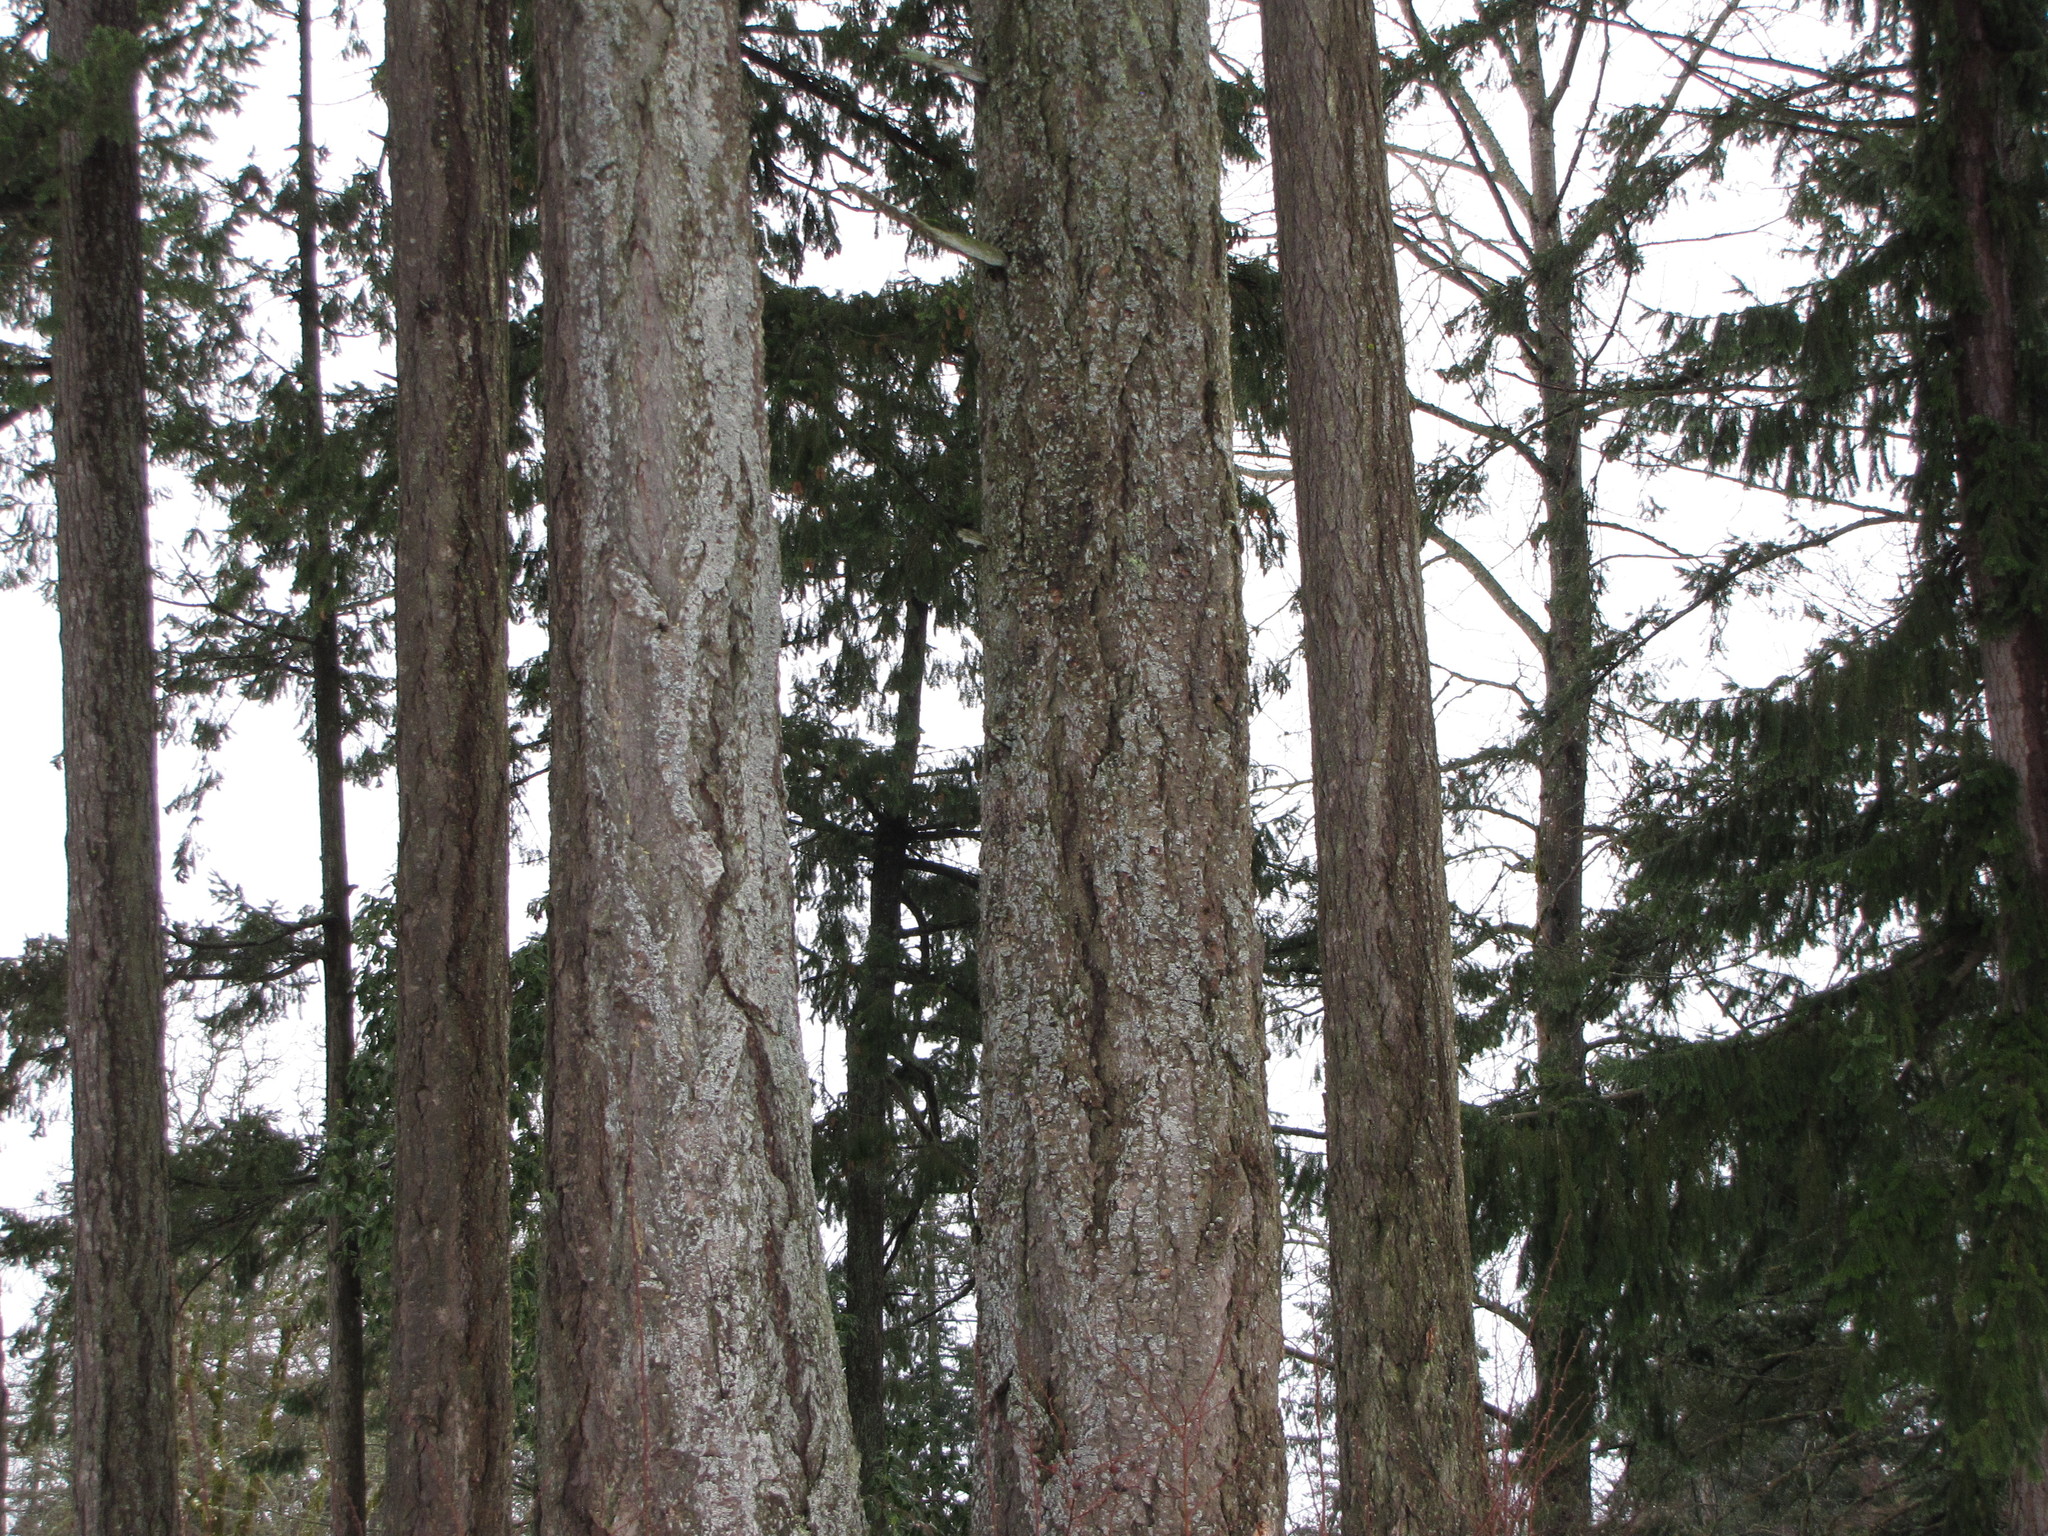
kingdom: Plantae
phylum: Tracheophyta
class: Pinopsida
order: Pinales
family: Pinaceae
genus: Pseudotsuga
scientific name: Pseudotsuga menziesii
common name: Douglas fir
